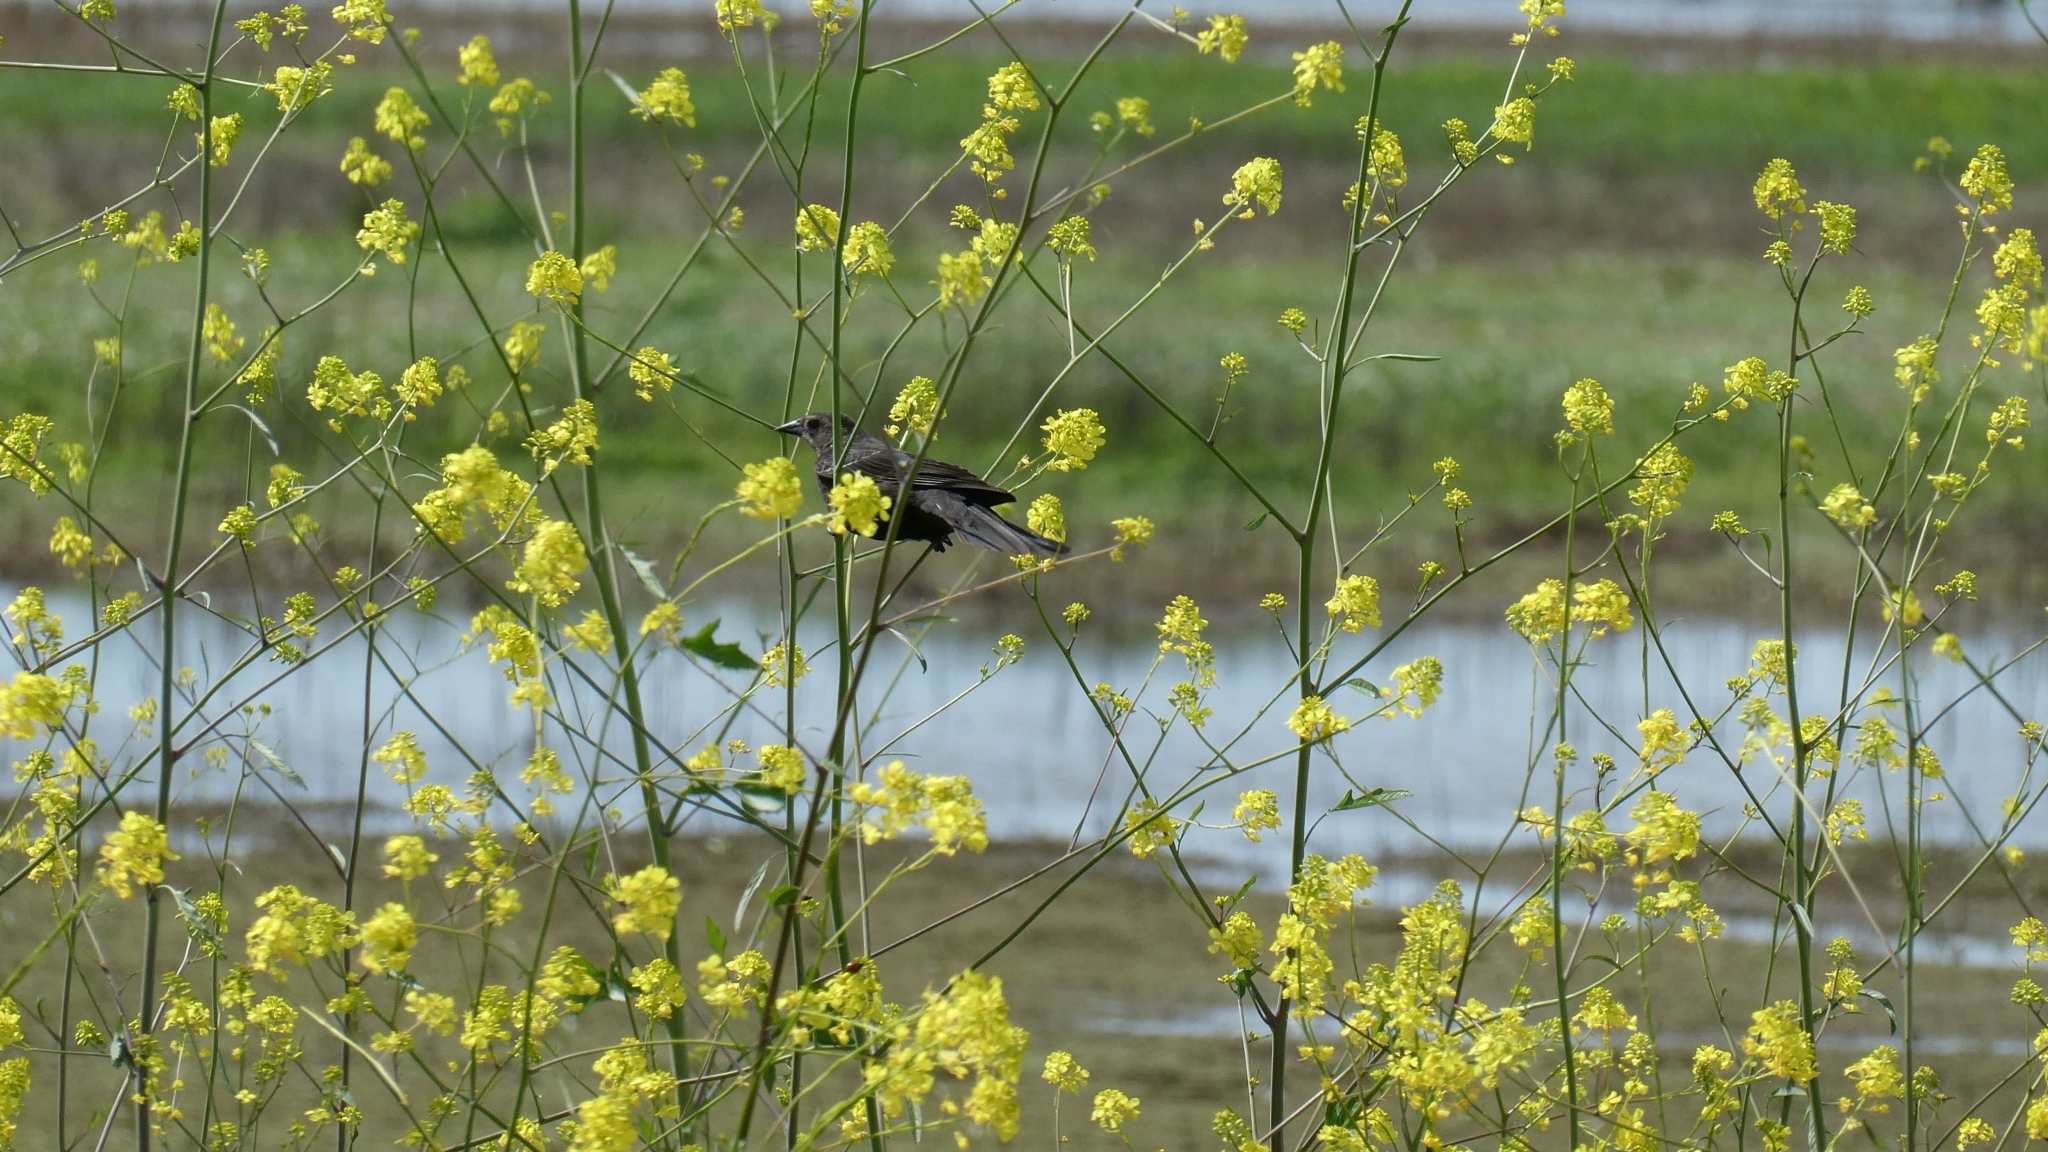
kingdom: Animalia
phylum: Chordata
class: Aves
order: Passeriformes
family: Icteridae
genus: Agelaius
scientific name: Agelaius phoeniceus
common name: Red-winged blackbird
